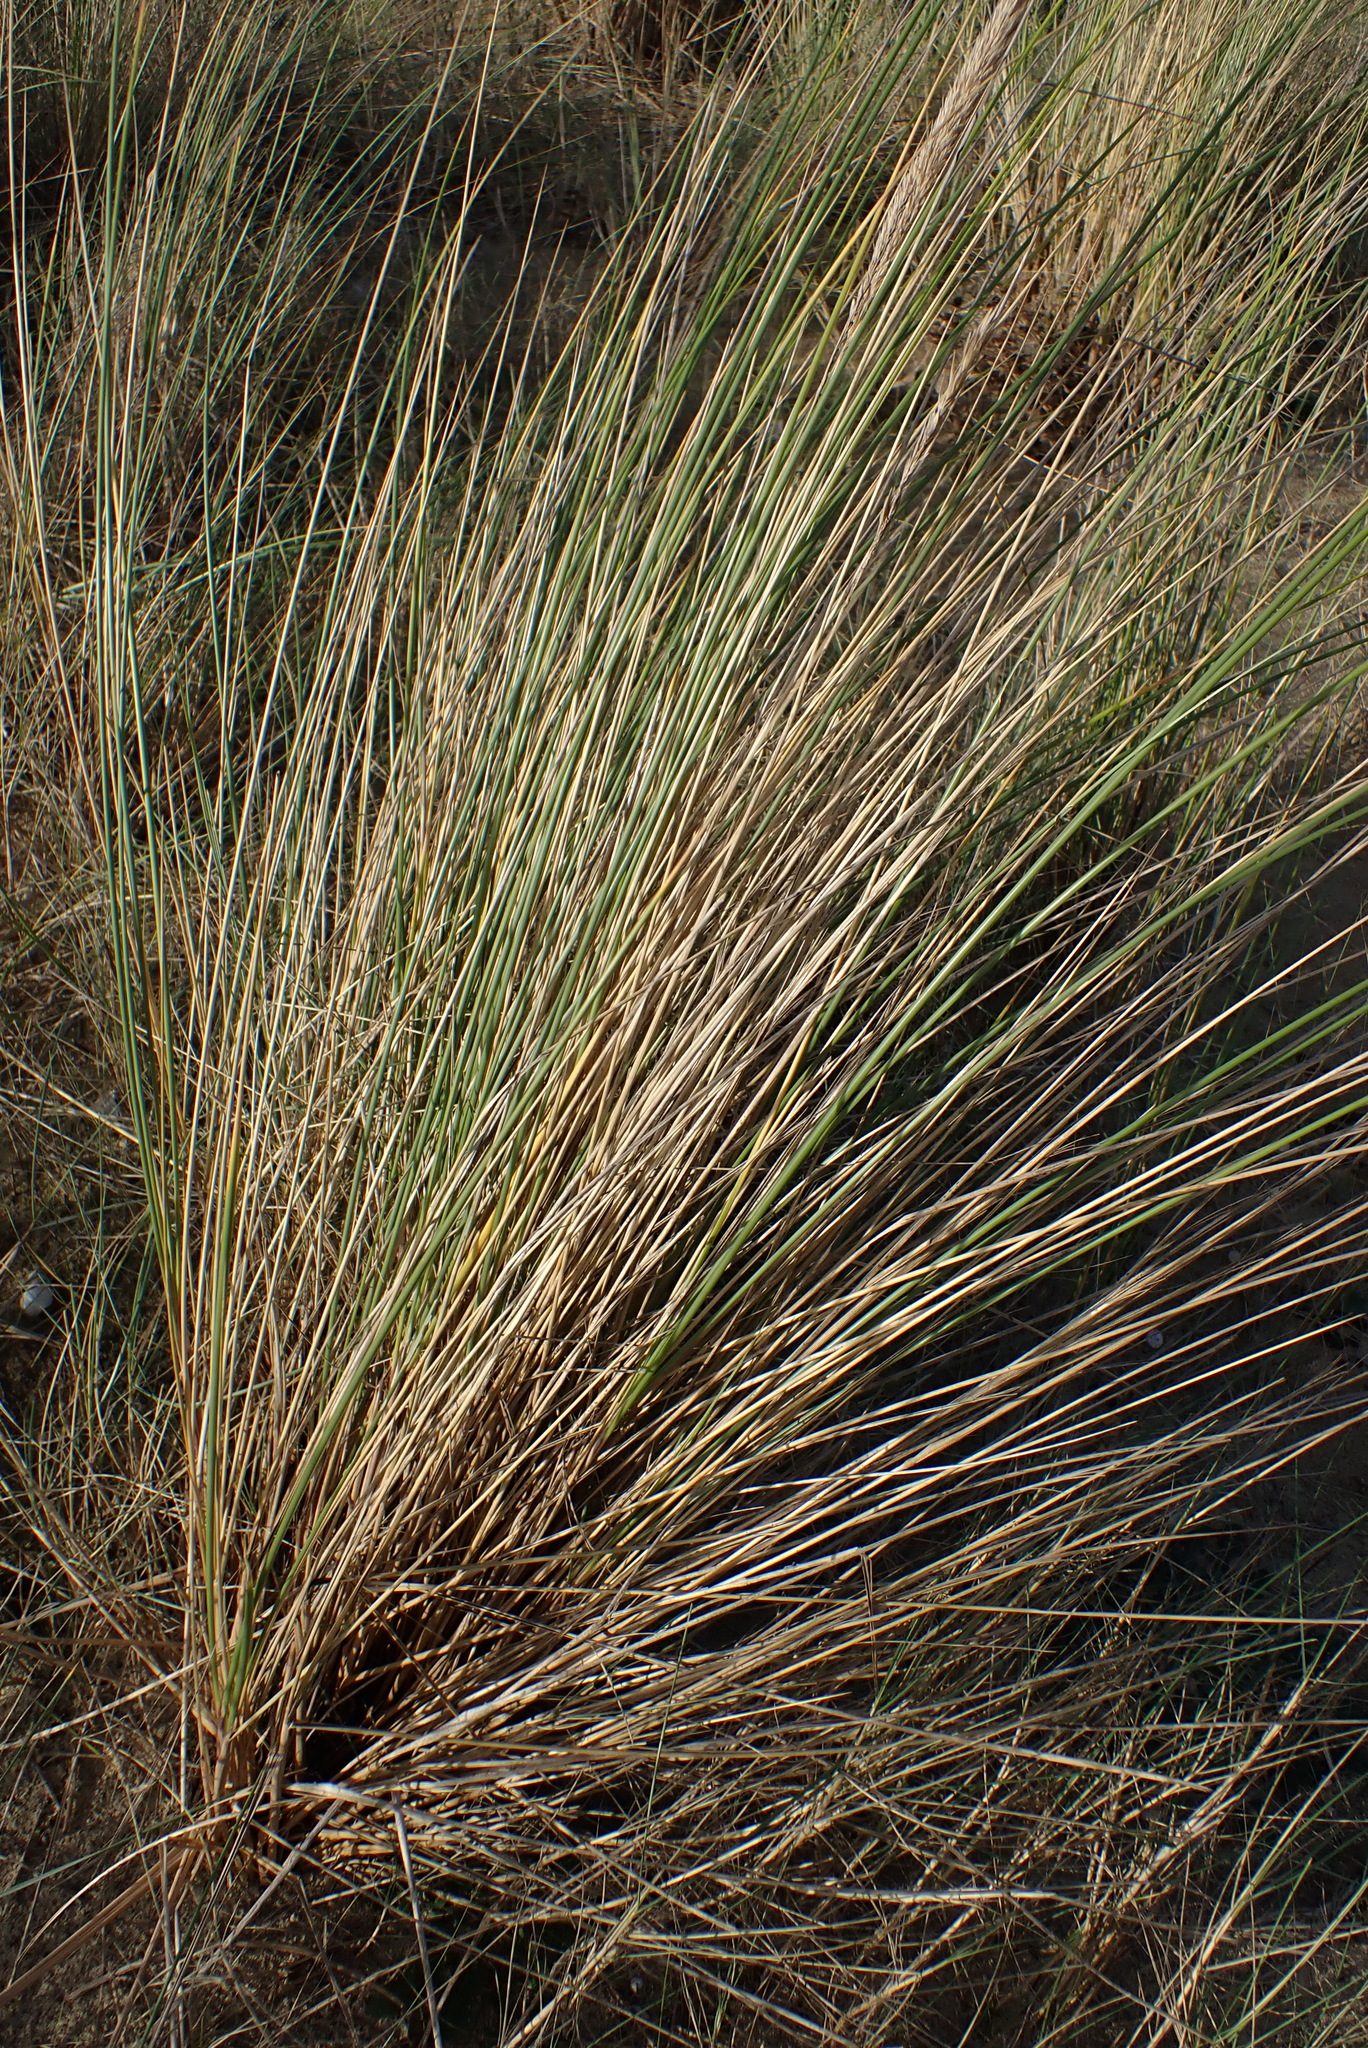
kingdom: Plantae
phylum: Tracheophyta
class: Liliopsida
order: Poales
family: Poaceae
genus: Calamagrostis
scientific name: Calamagrostis arenaria
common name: European beachgrass
